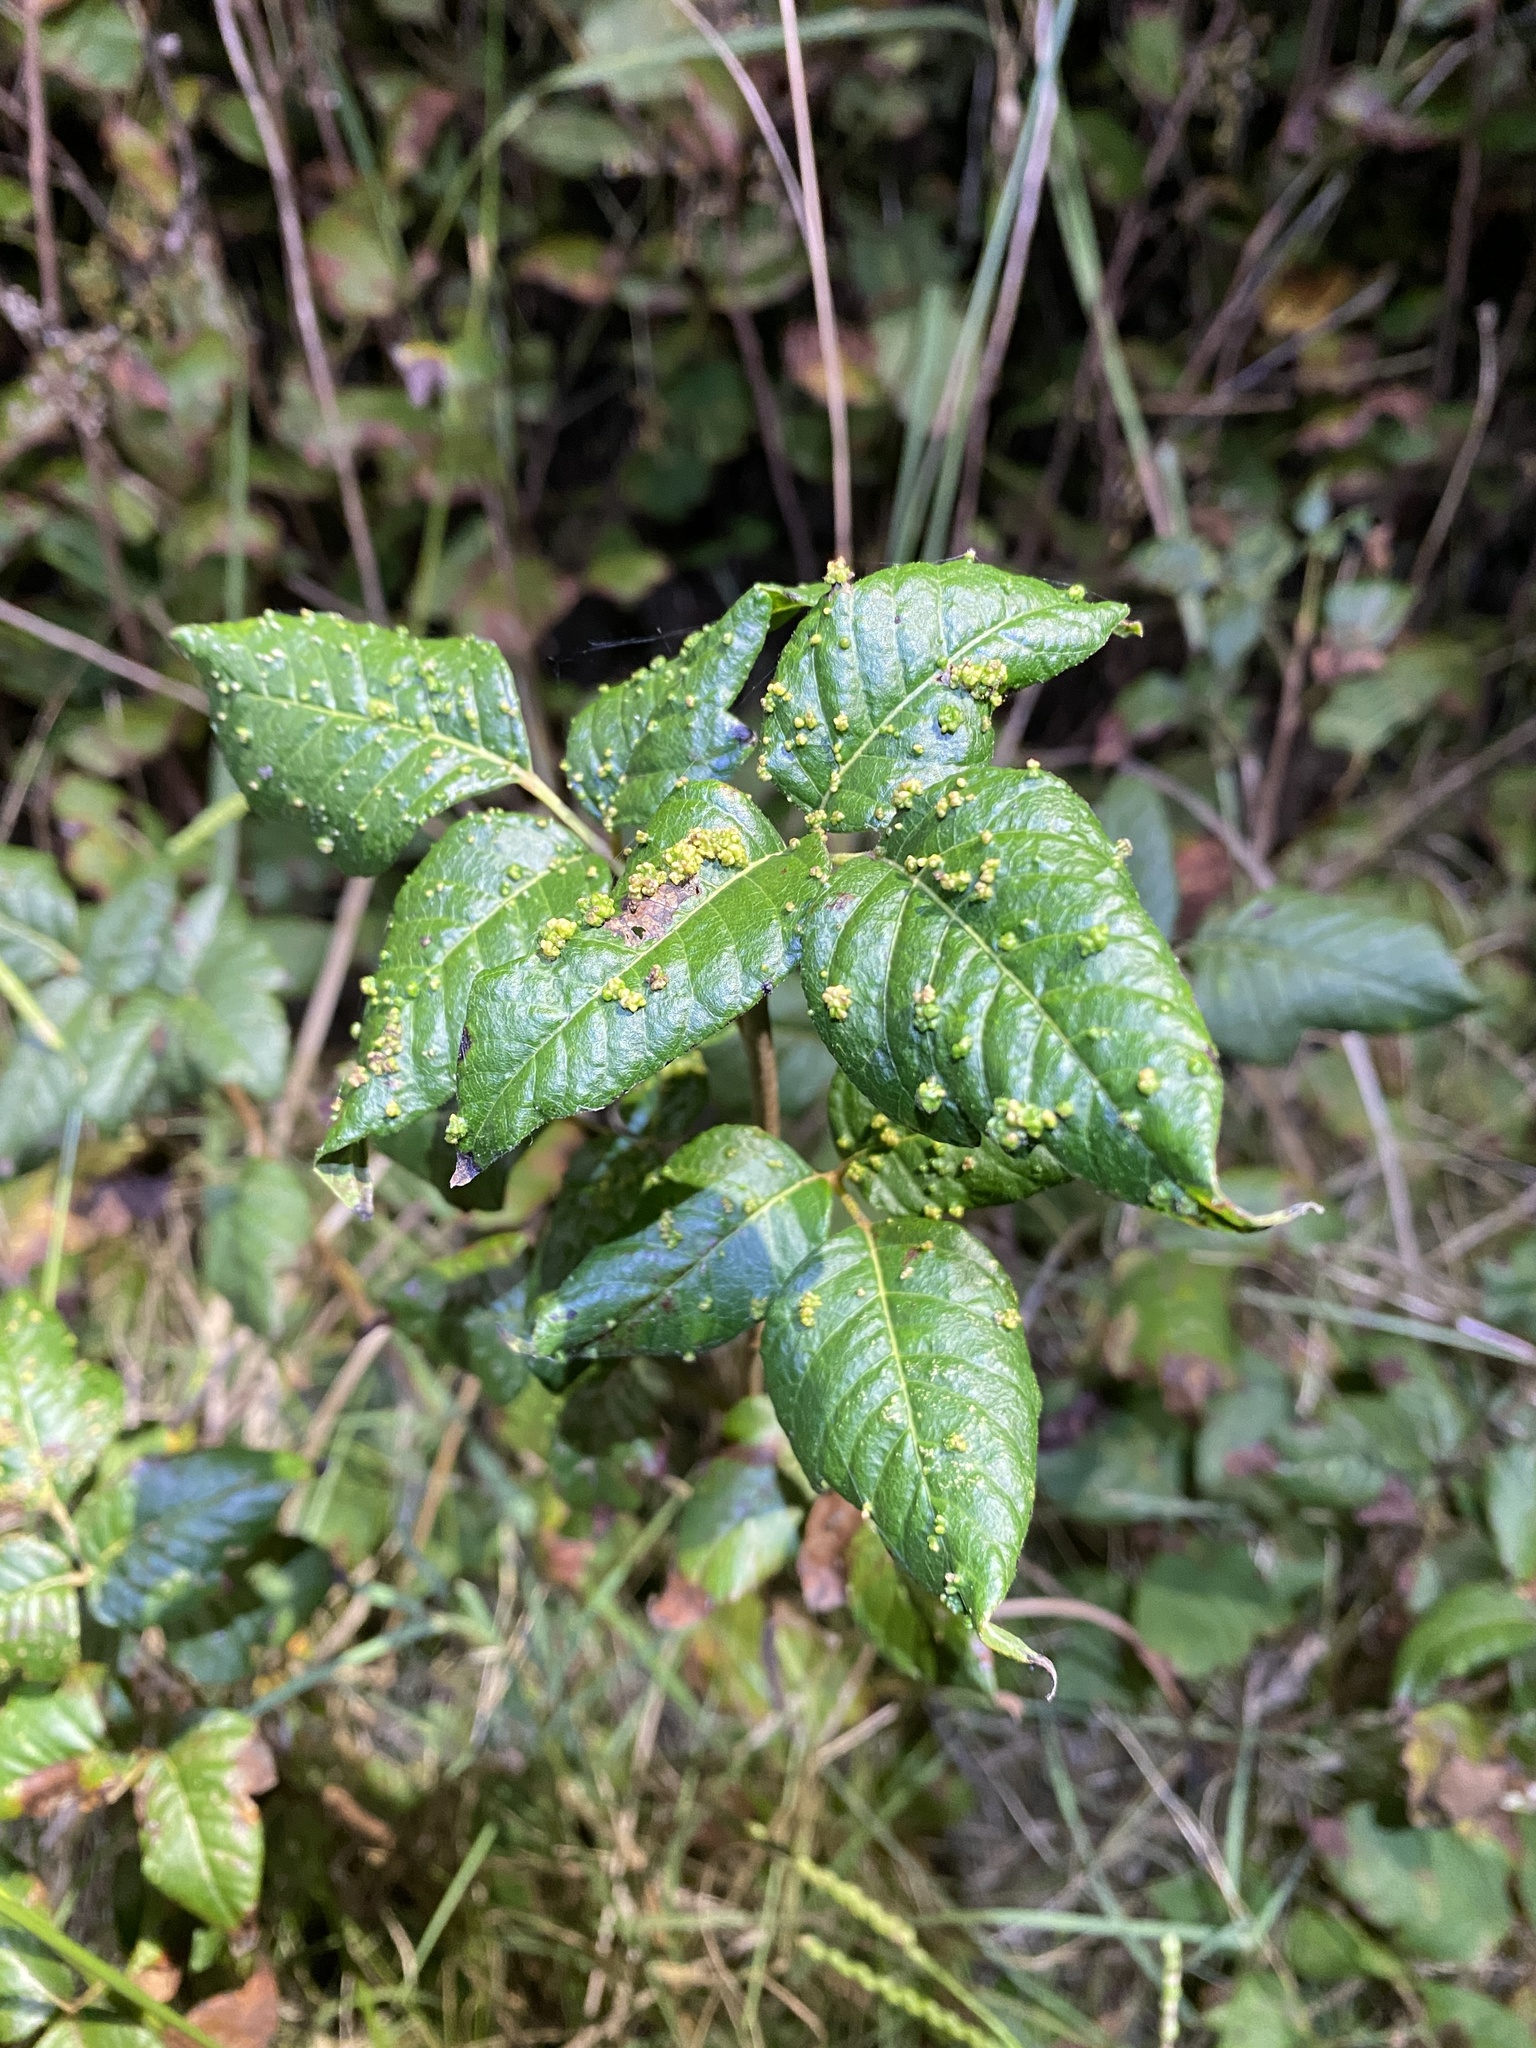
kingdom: Animalia
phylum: Arthropoda
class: Arachnida
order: Trombidiformes
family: Eriophyidae
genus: Aculops
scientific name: Aculops
